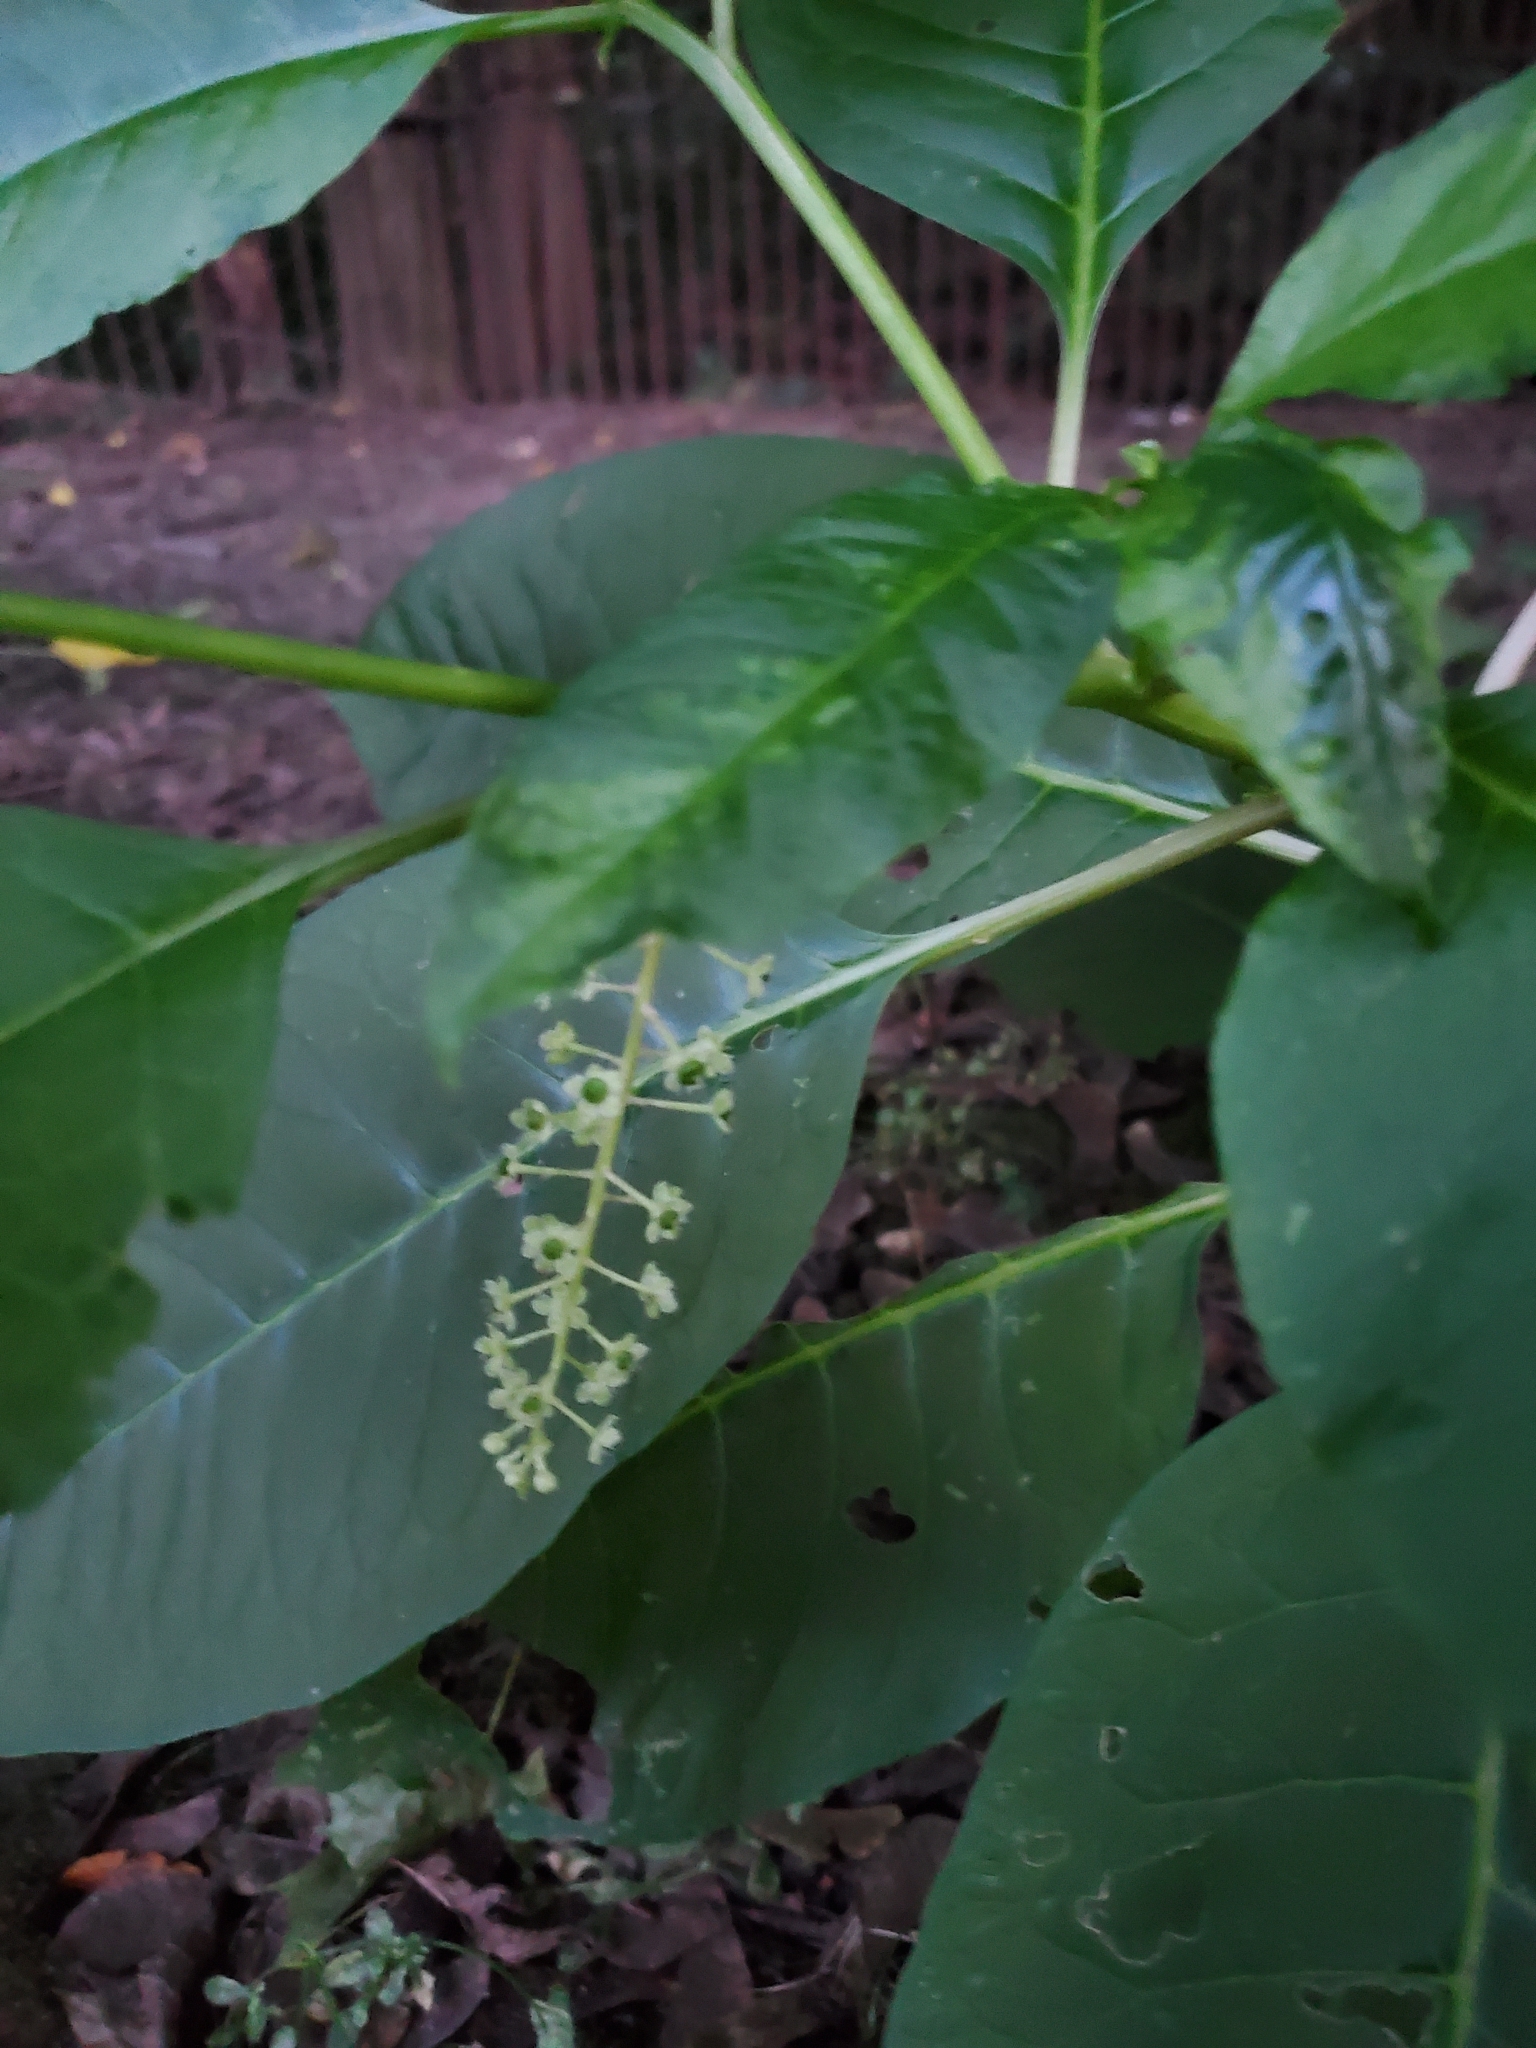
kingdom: Plantae
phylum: Tracheophyta
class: Magnoliopsida
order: Caryophyllales
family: Phytolaccaceae
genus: Phytolacca
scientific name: Phytolacca americana
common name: American pokeweed
